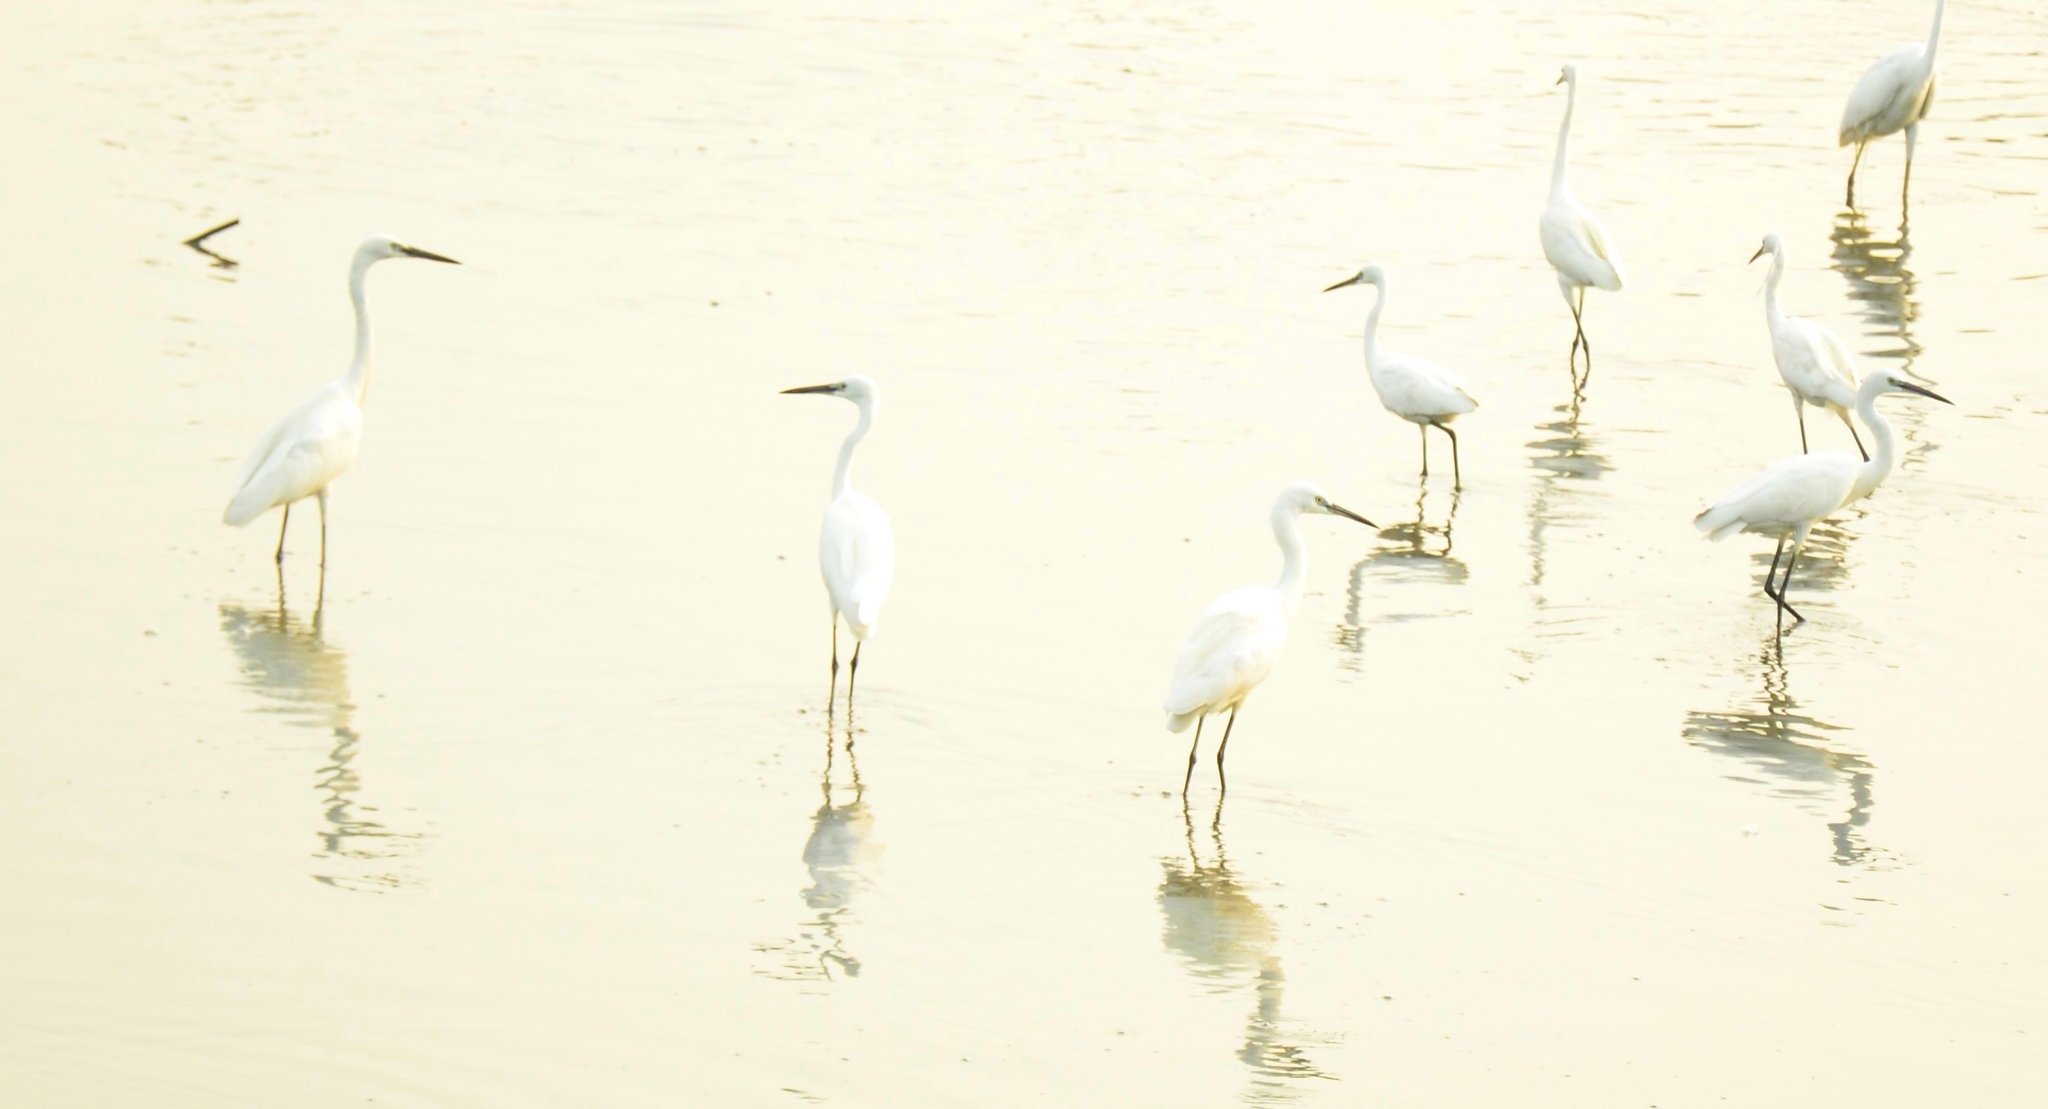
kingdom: Animalia
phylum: Chordata
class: Aves
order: Pelecaniformes
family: Ardeidae
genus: Egretta
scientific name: Egretta garzetta
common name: Little egret
